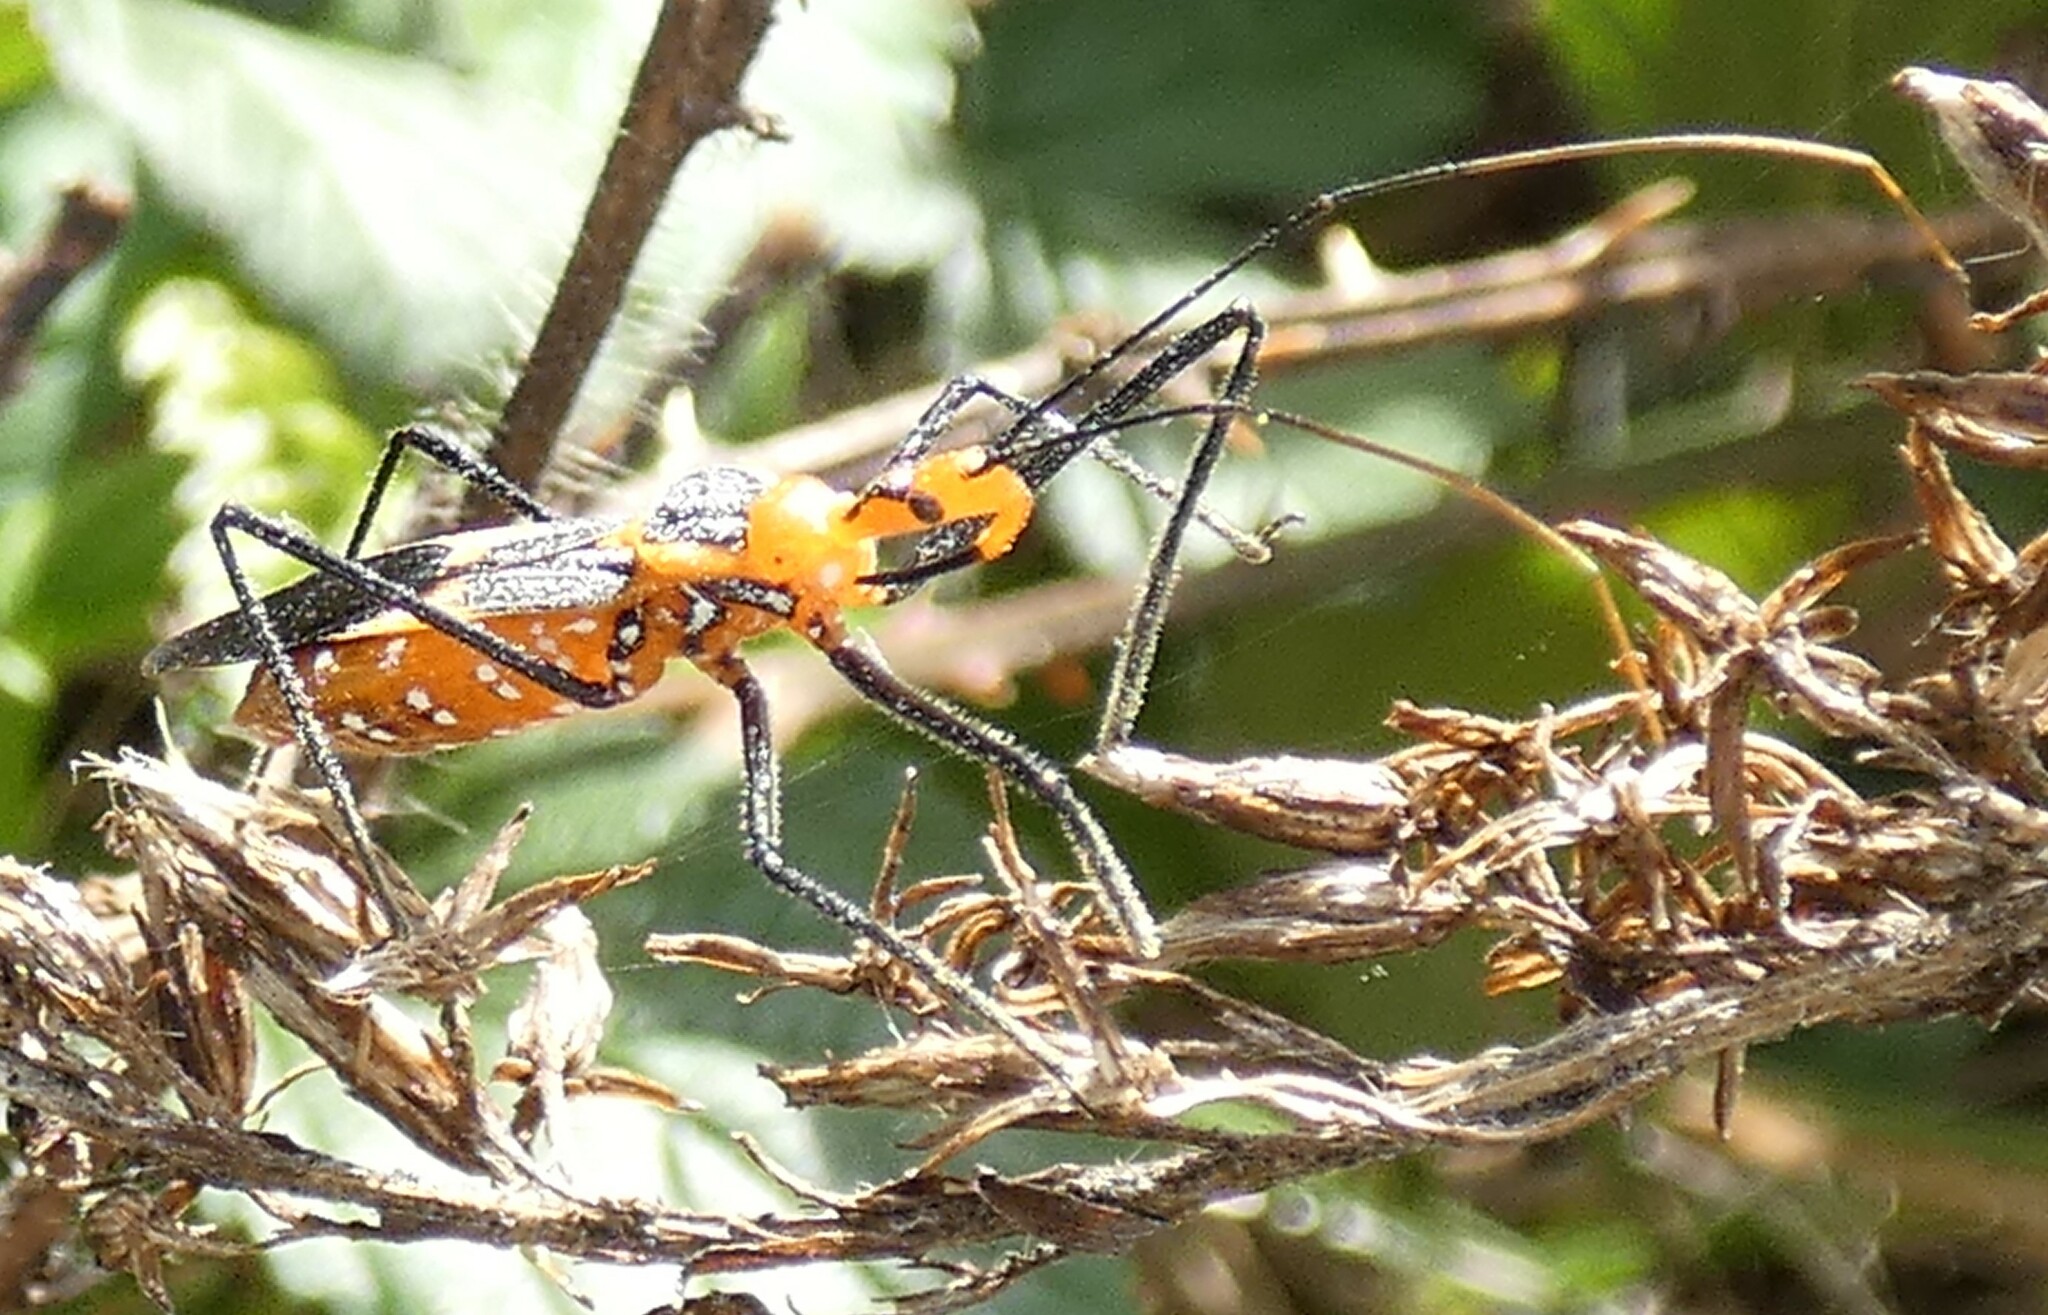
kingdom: Animalia
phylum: Arthropoda
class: Insecta
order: Hemiptera
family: Reduviidae
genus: Zelus
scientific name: Zelus longipes
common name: Milkweed assassin bug
